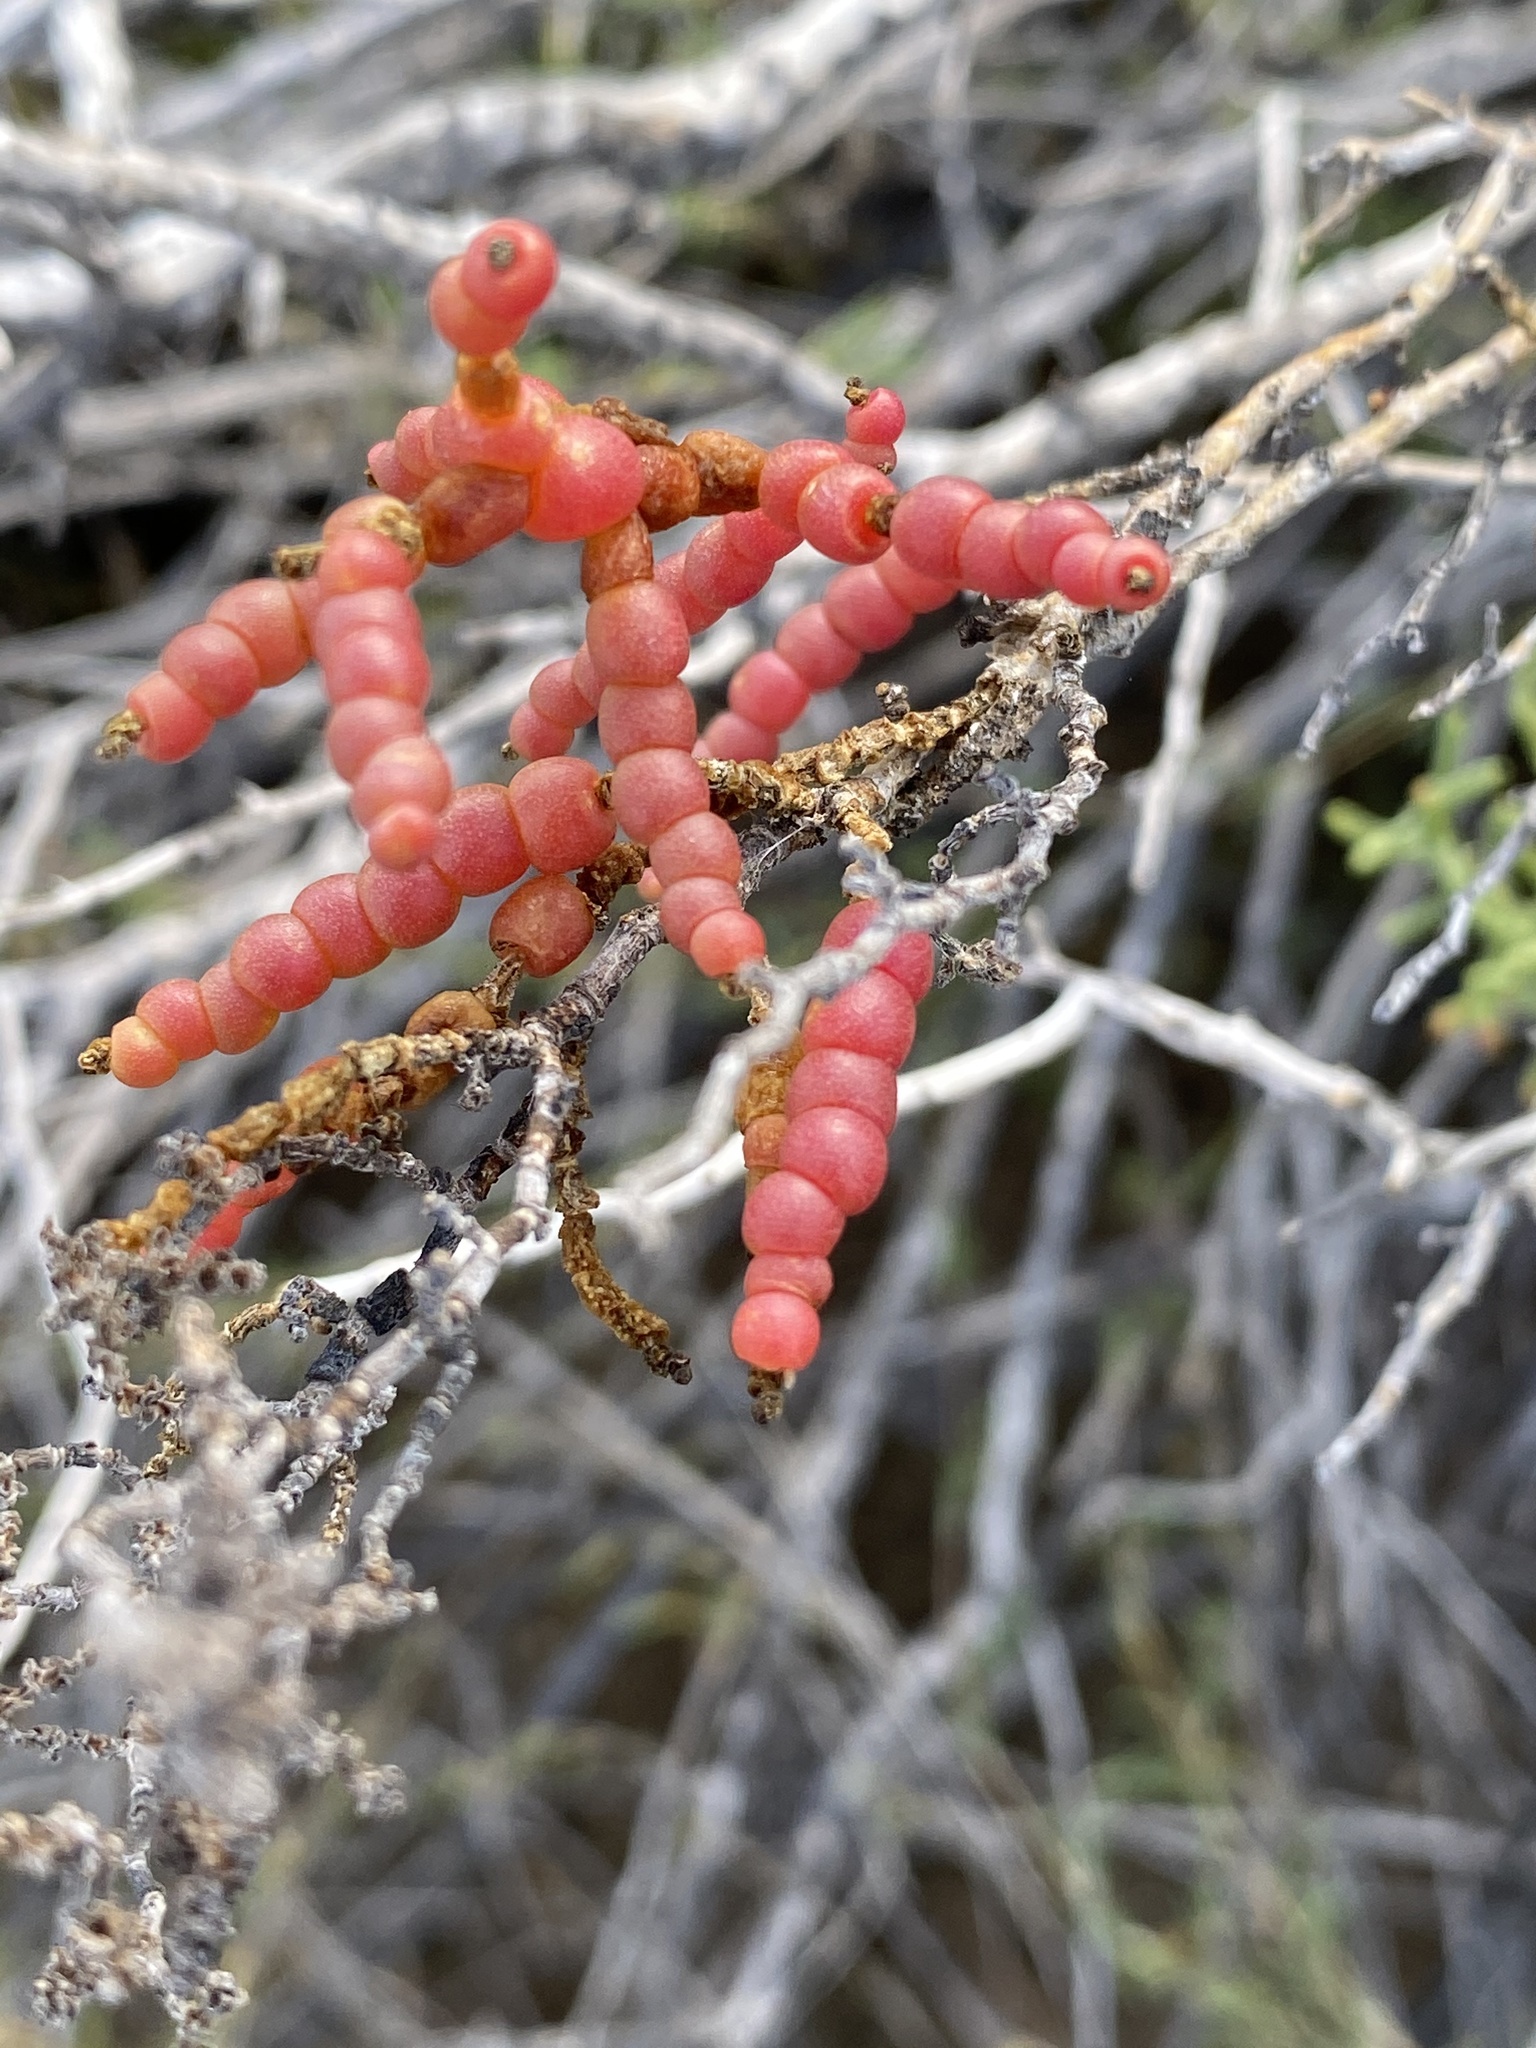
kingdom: Plantae
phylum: Tracheophyta
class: Magnoliopsida
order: Caryophyllales
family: Amaranthaceae
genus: Allenrolfea
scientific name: Allenrolfea occidentalis
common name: Iodine-bush
